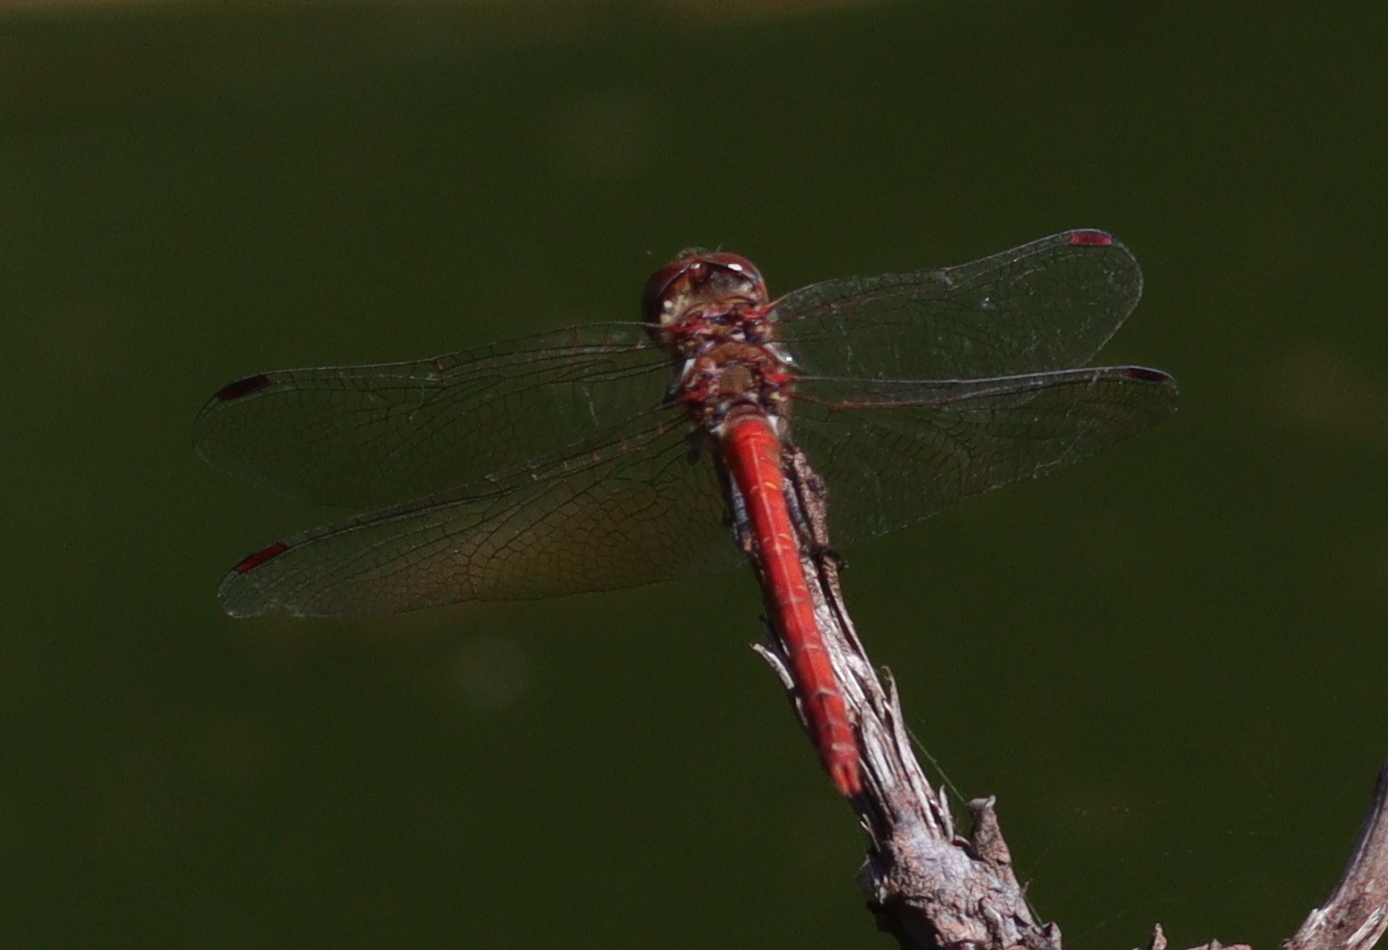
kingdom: Animalia
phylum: Arthropoda
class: Insecta
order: Odonata
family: Libellulidae
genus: Sympetrum
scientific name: Sympetrum nigrifemur
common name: Island darter
